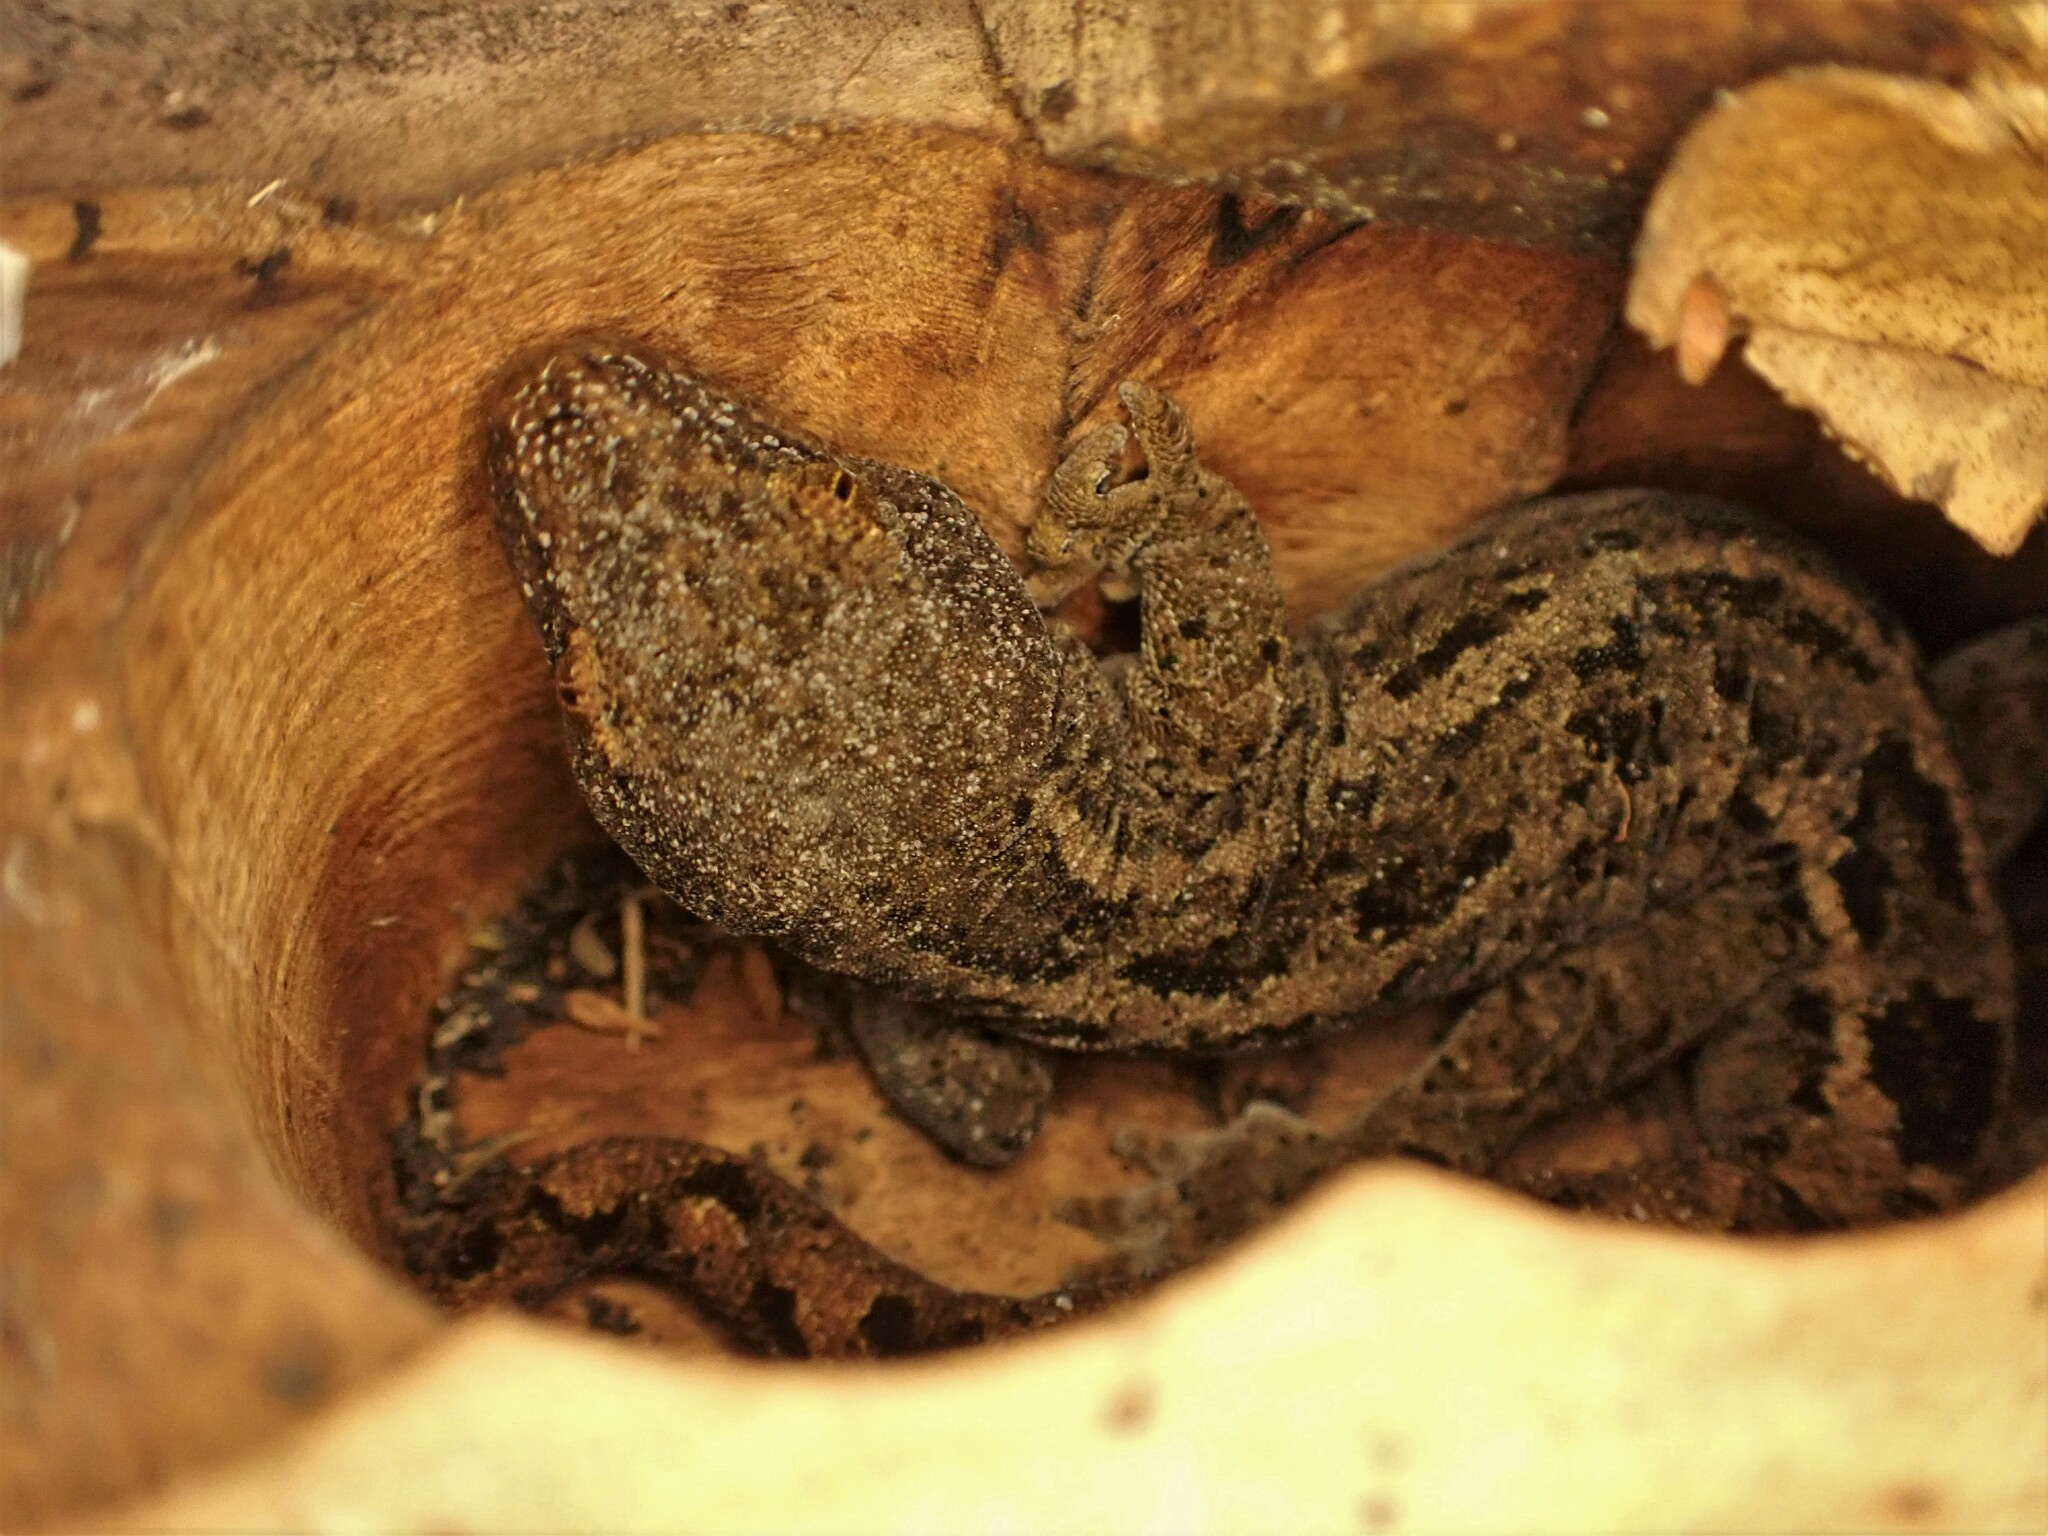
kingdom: Animalia
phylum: Chordata
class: Squamata
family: Diplodactylidae
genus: Woodworthia
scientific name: Woodworthia brunnea
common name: Canterbury gecko
